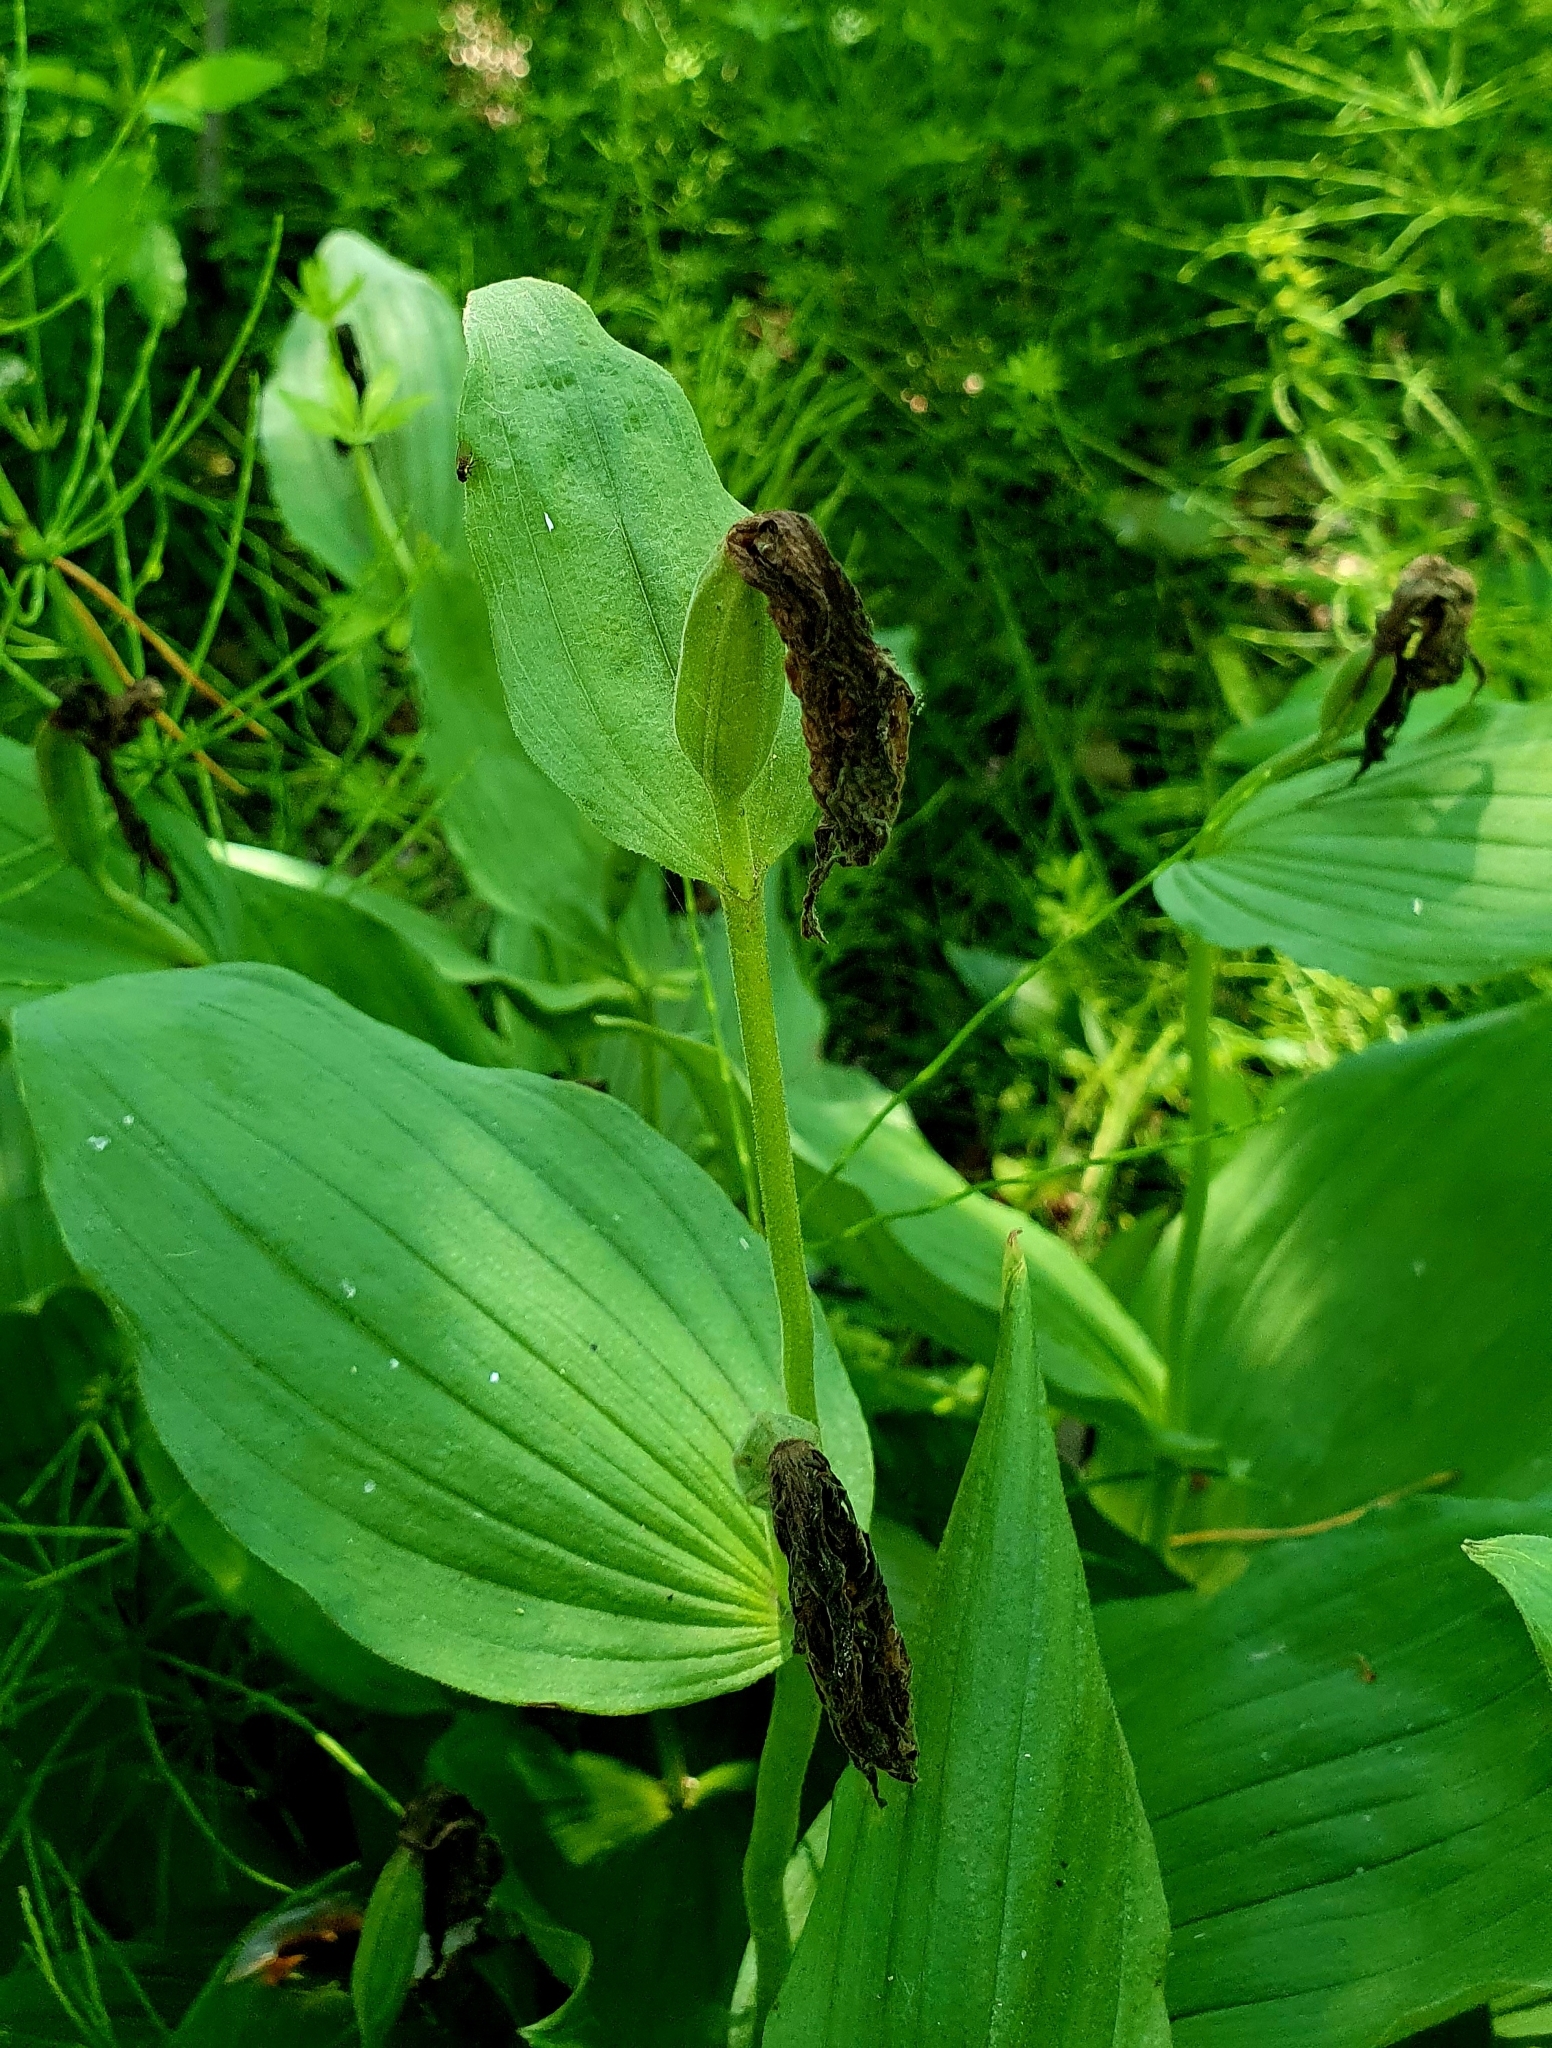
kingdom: Plantae
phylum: Tracheophyta
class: Liliopsida
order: Asparagales
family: Orchidaceae
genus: Cypripedium
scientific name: Cypripedium calceolus
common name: Lady's-slipper
